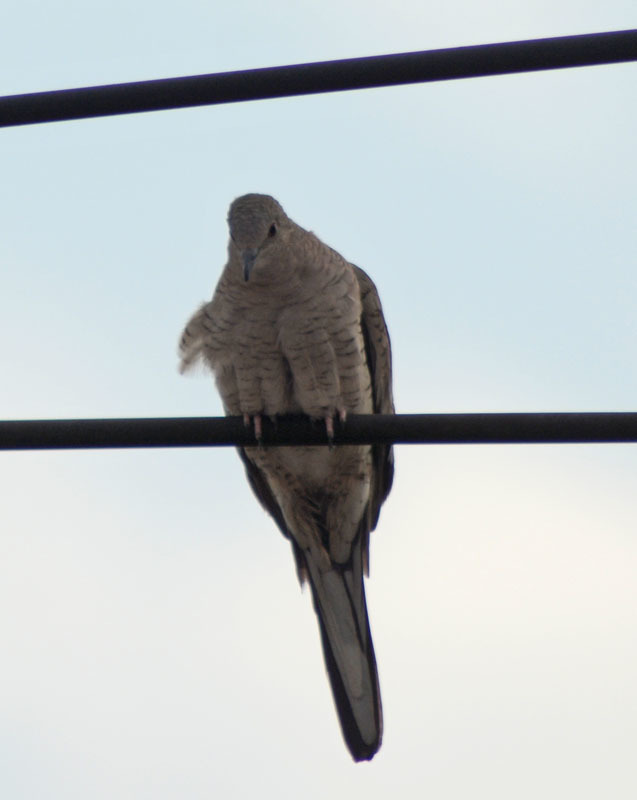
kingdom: Animalia
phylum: Chordata
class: Aves
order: Columbiformes
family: Columbidae
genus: Columbina
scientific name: Columbina inca
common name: Inca dove
